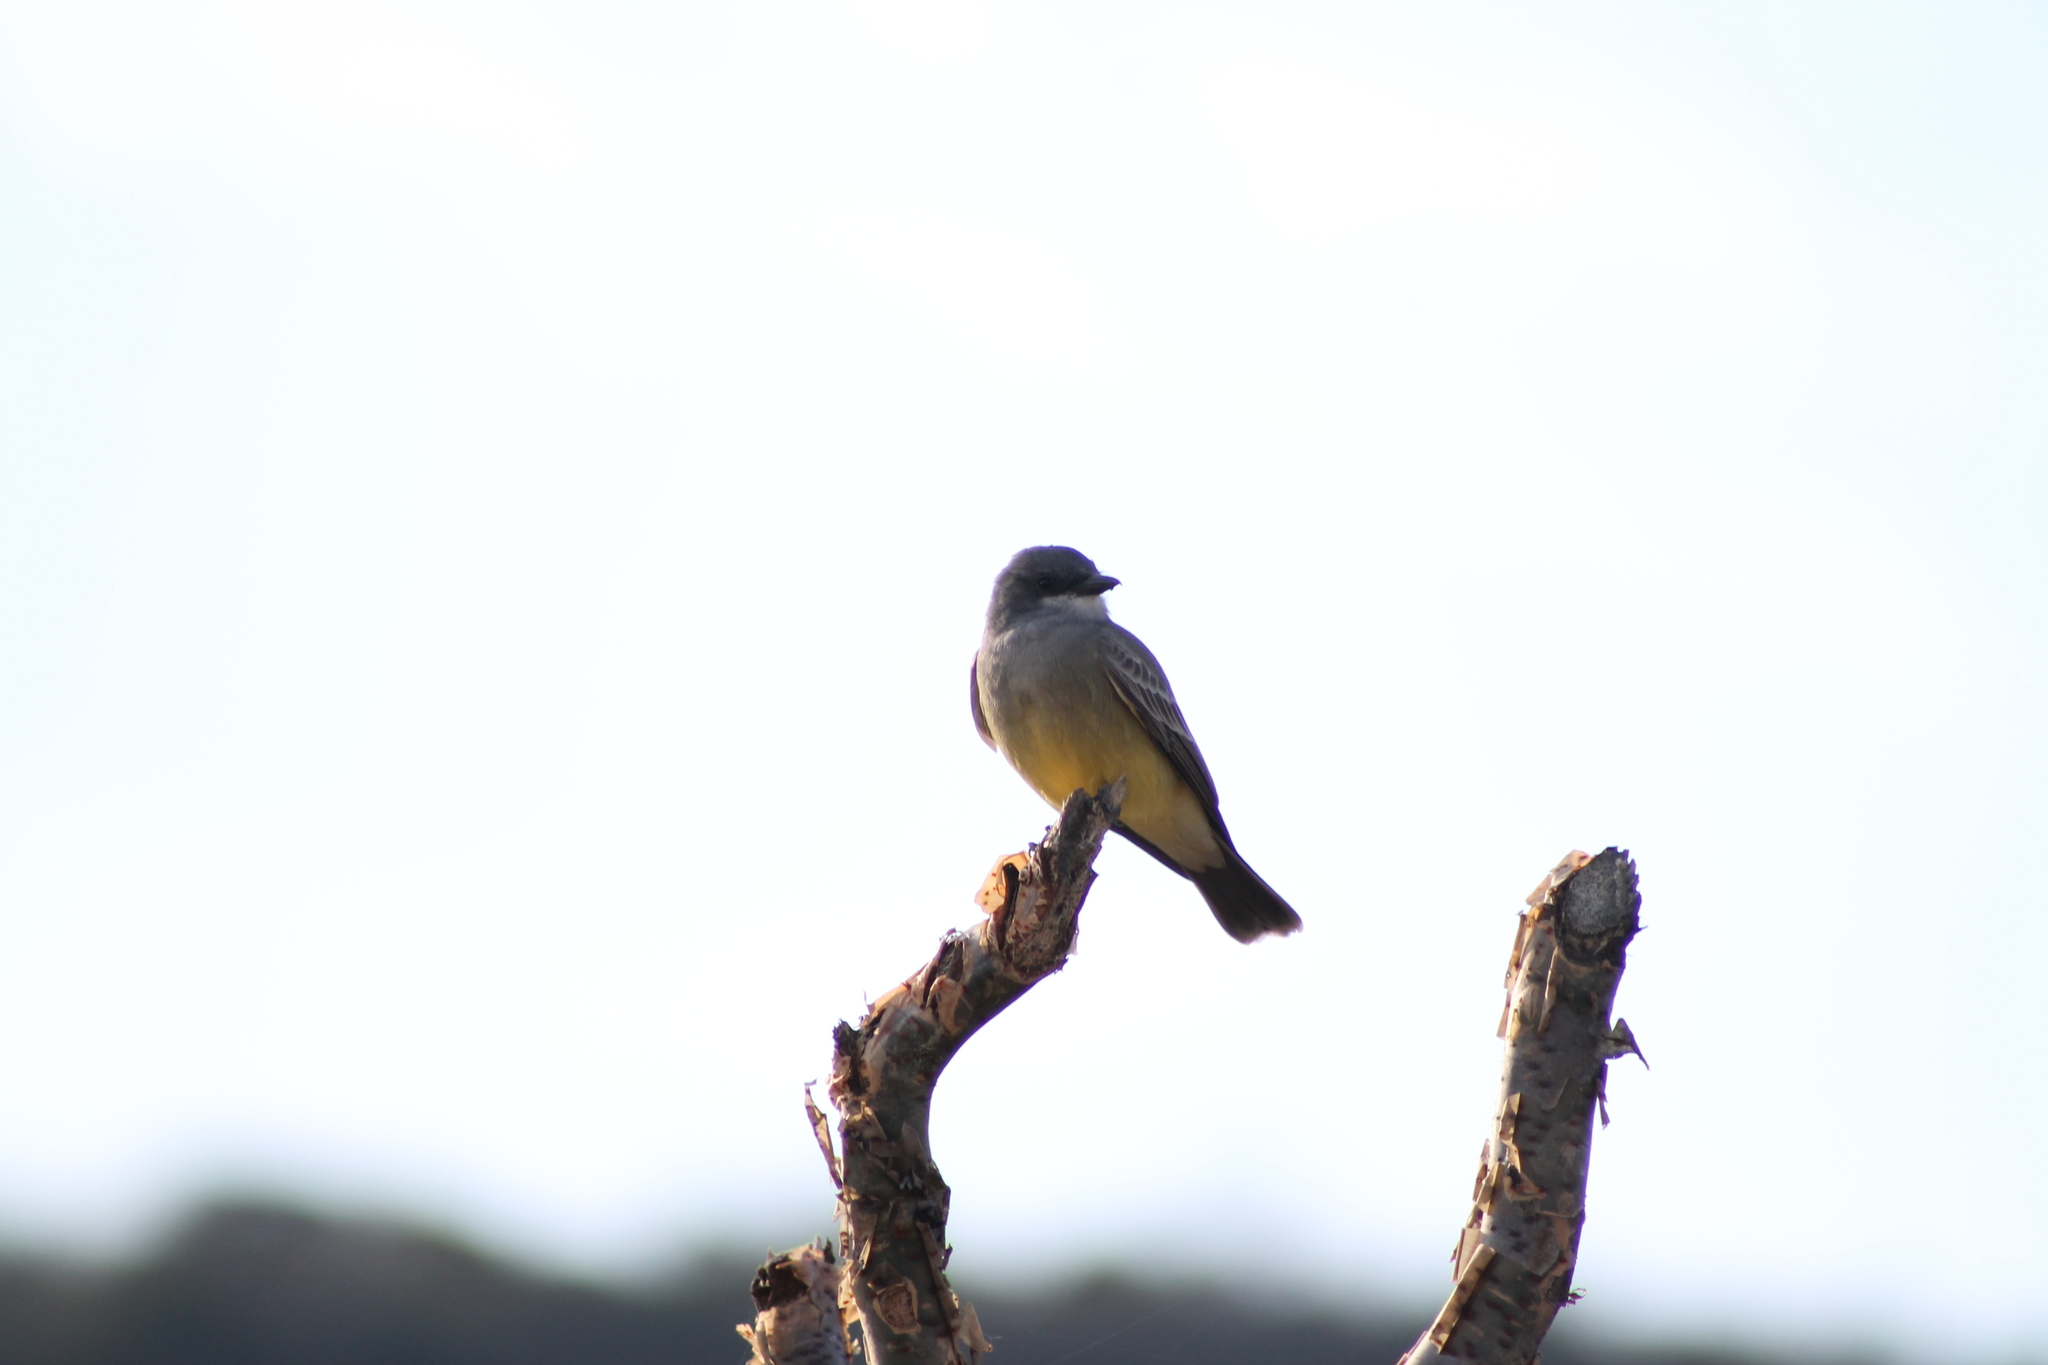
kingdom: Animalia
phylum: Chordata
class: Aves
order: Passeriformes
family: Tyrannidae
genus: Tyrannus
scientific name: Tyrannus vociferans
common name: Cassin's kingbird
